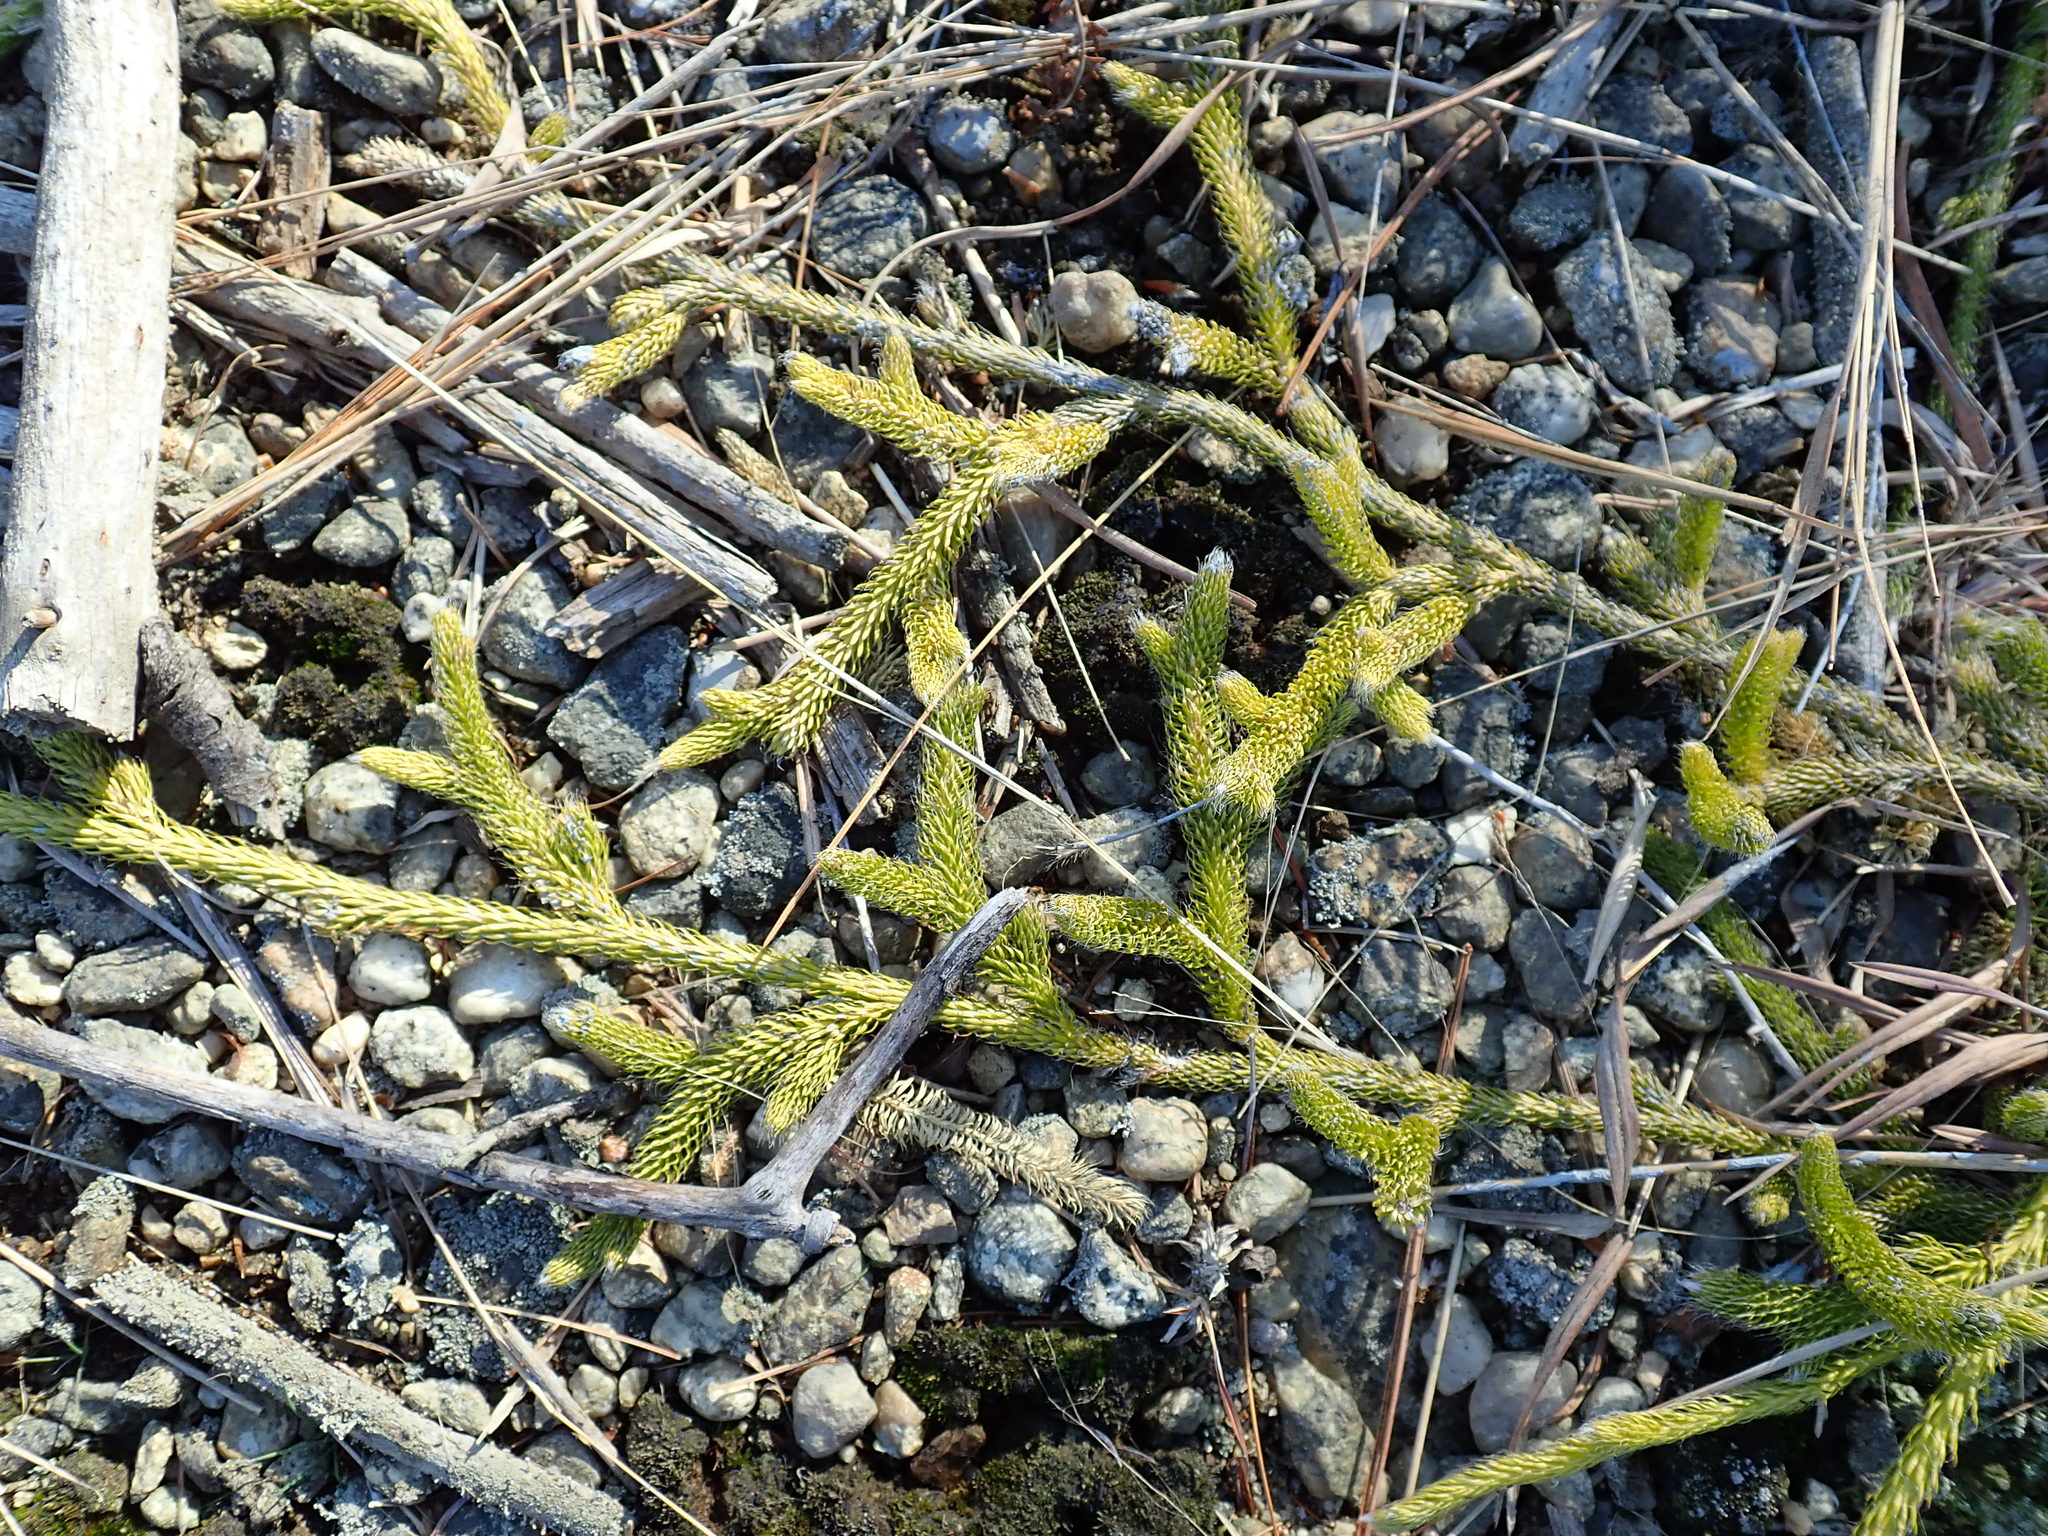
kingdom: Plantae
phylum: Tracheophyta
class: Lycopodiopsida
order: Lycopodiales
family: Lycopodiaceae
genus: Lycopodium
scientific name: Lycopodium clavatum
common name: Stag's-horn clubmoss
